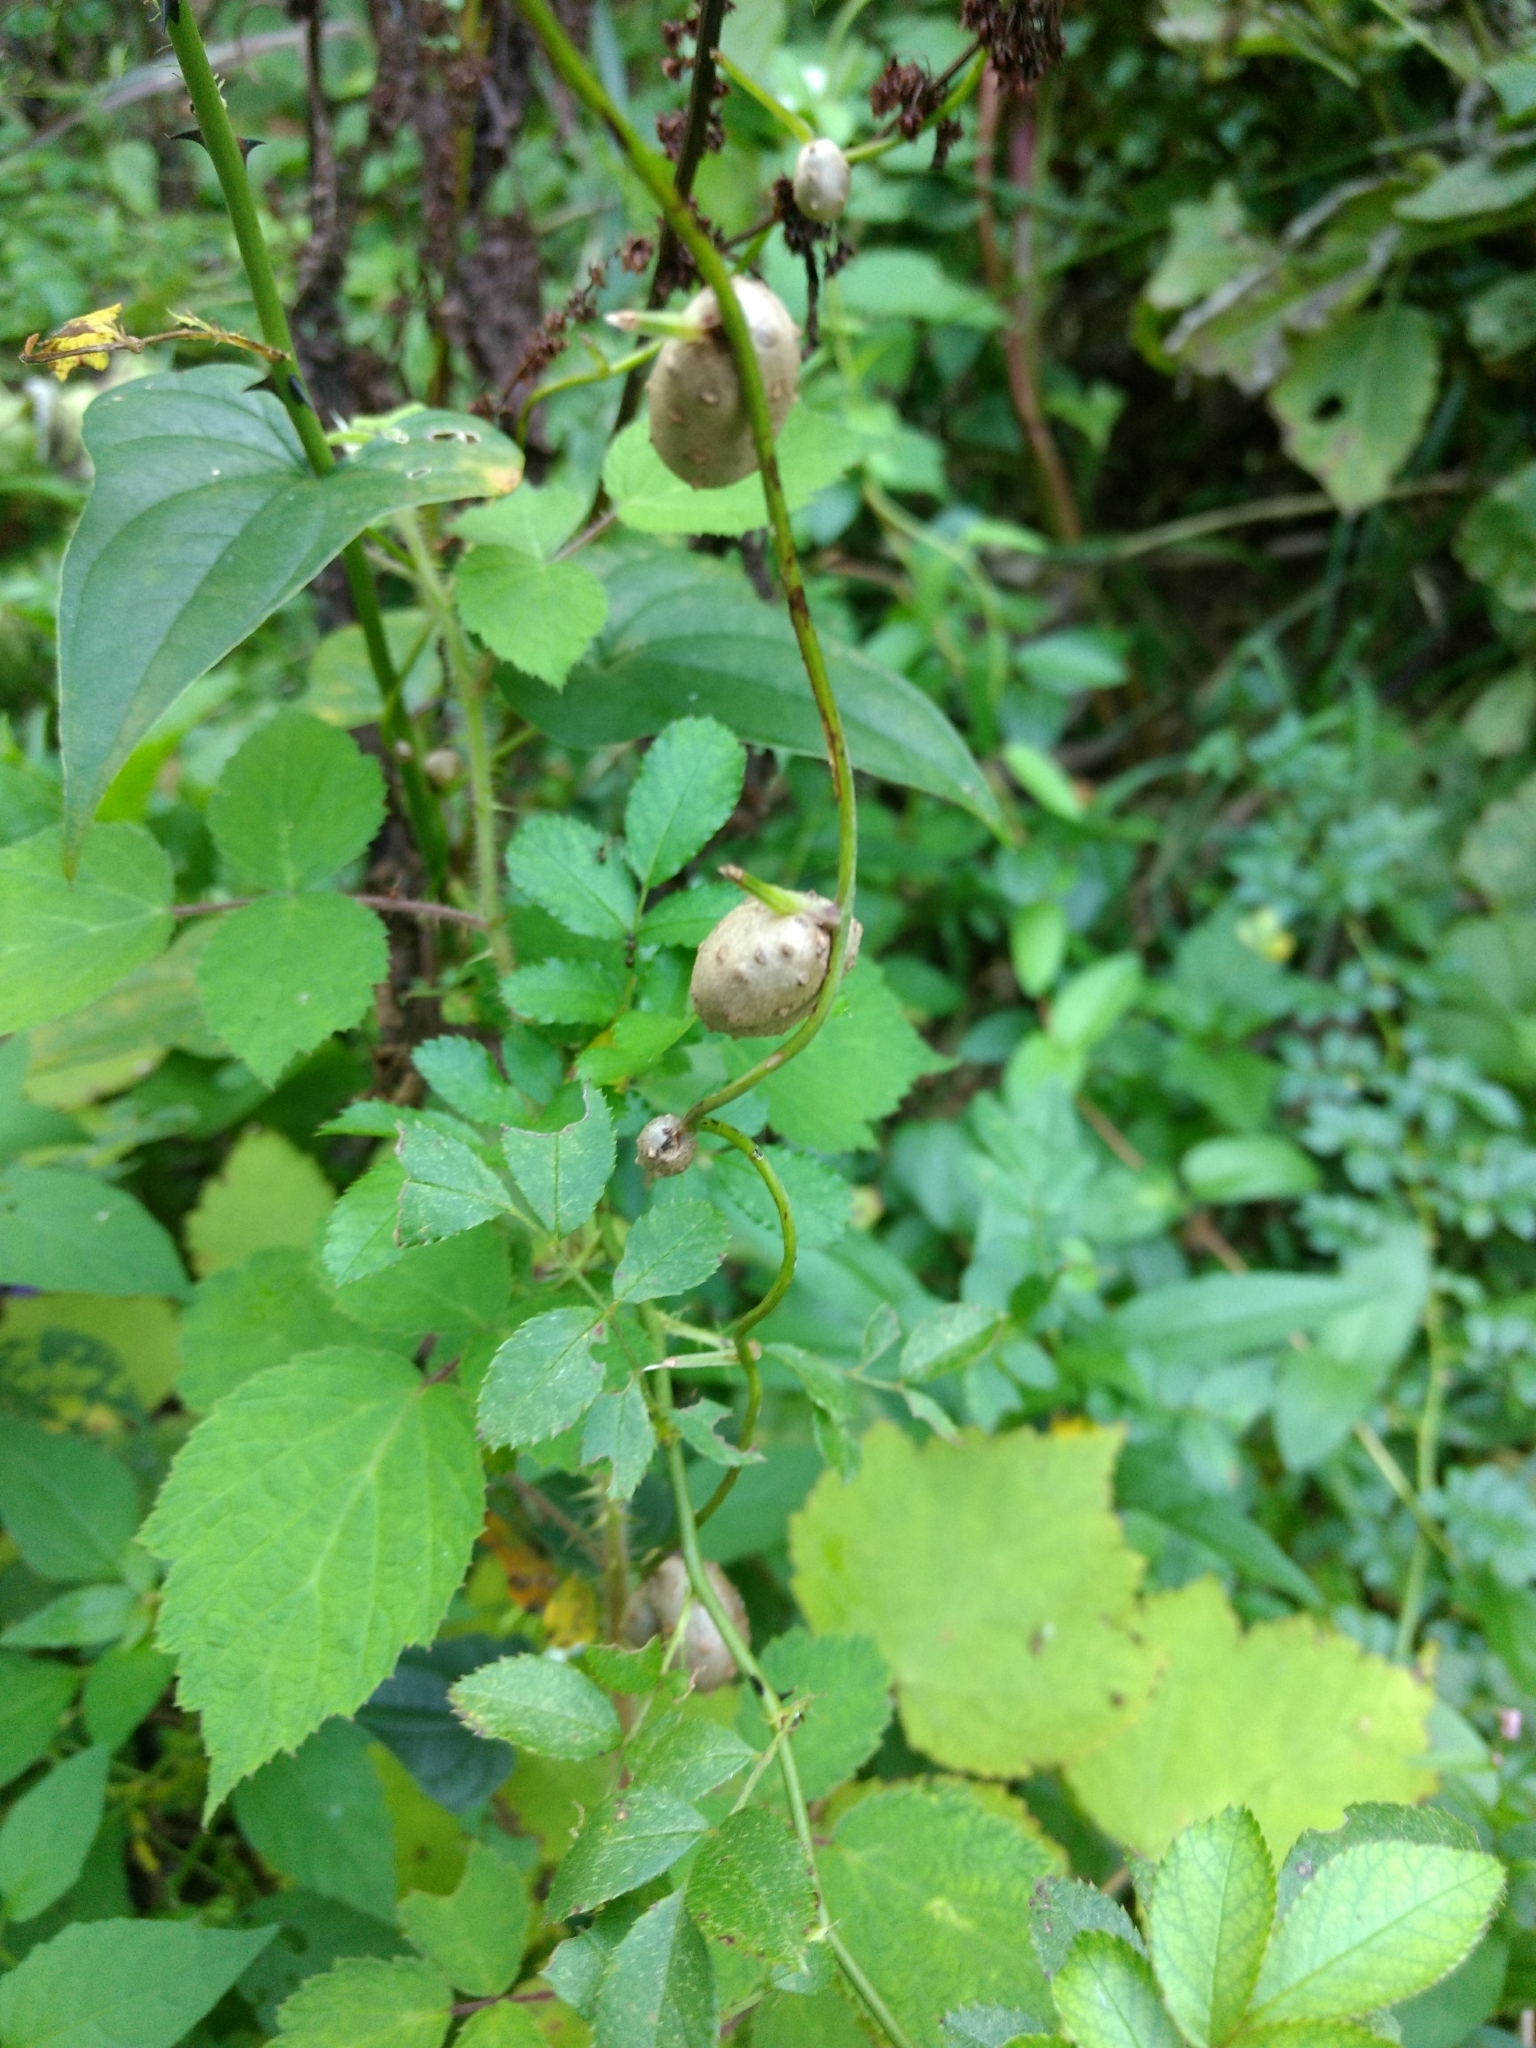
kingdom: Plantae
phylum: Tracheophyta
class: Liliopsida
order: Dioscoreales
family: Dioscoreaceae
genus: Dioscorea
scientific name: Dioscorea polystachya
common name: Chinese yam
